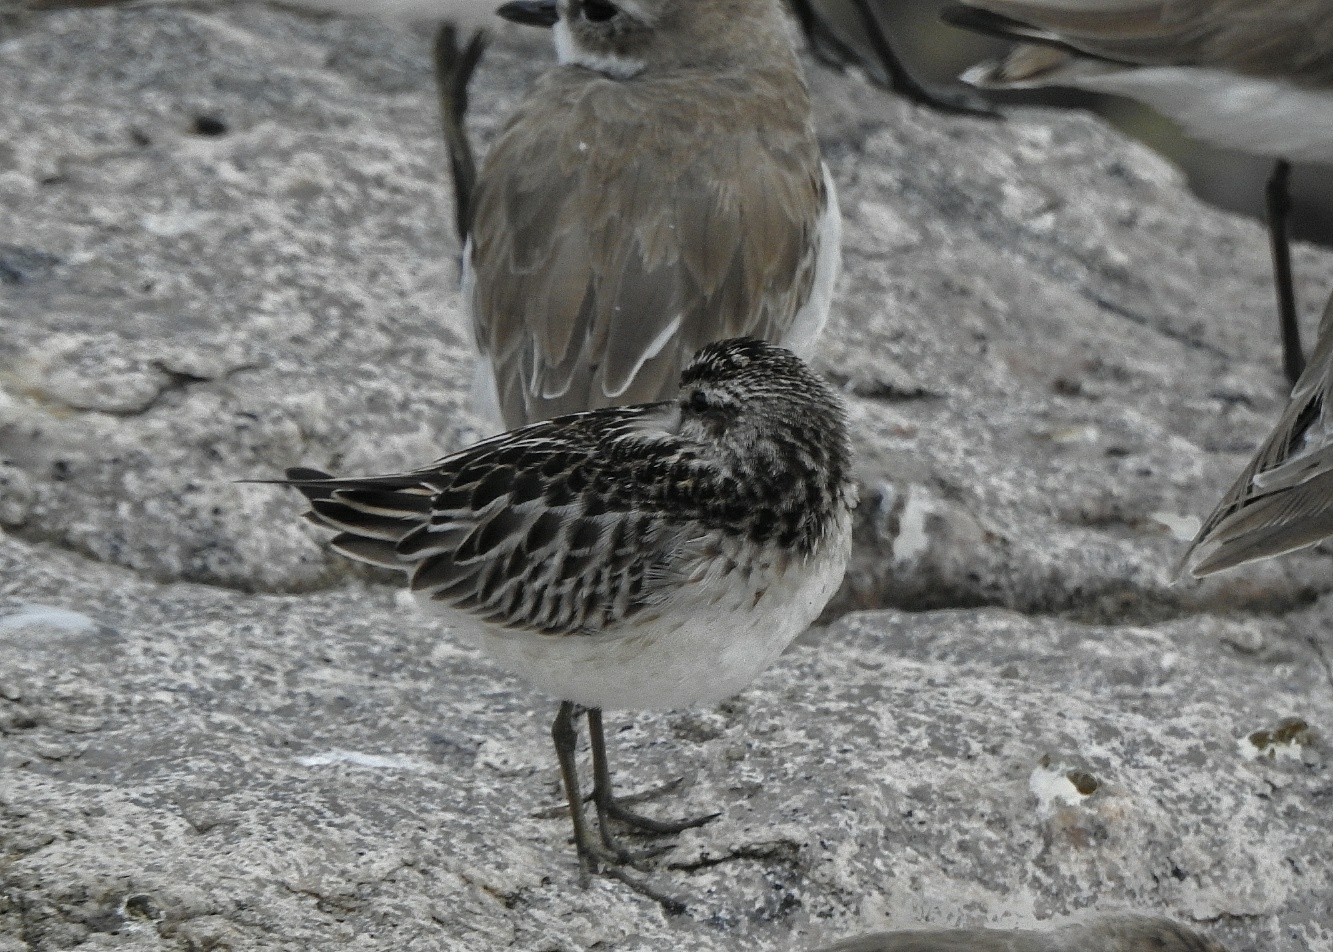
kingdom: Animalia
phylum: Chordata
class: Aves
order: Charadriiformes
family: Scolopacidae
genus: Calidris
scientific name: Calidris falcinellus
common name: Broad-billed sandpiper
